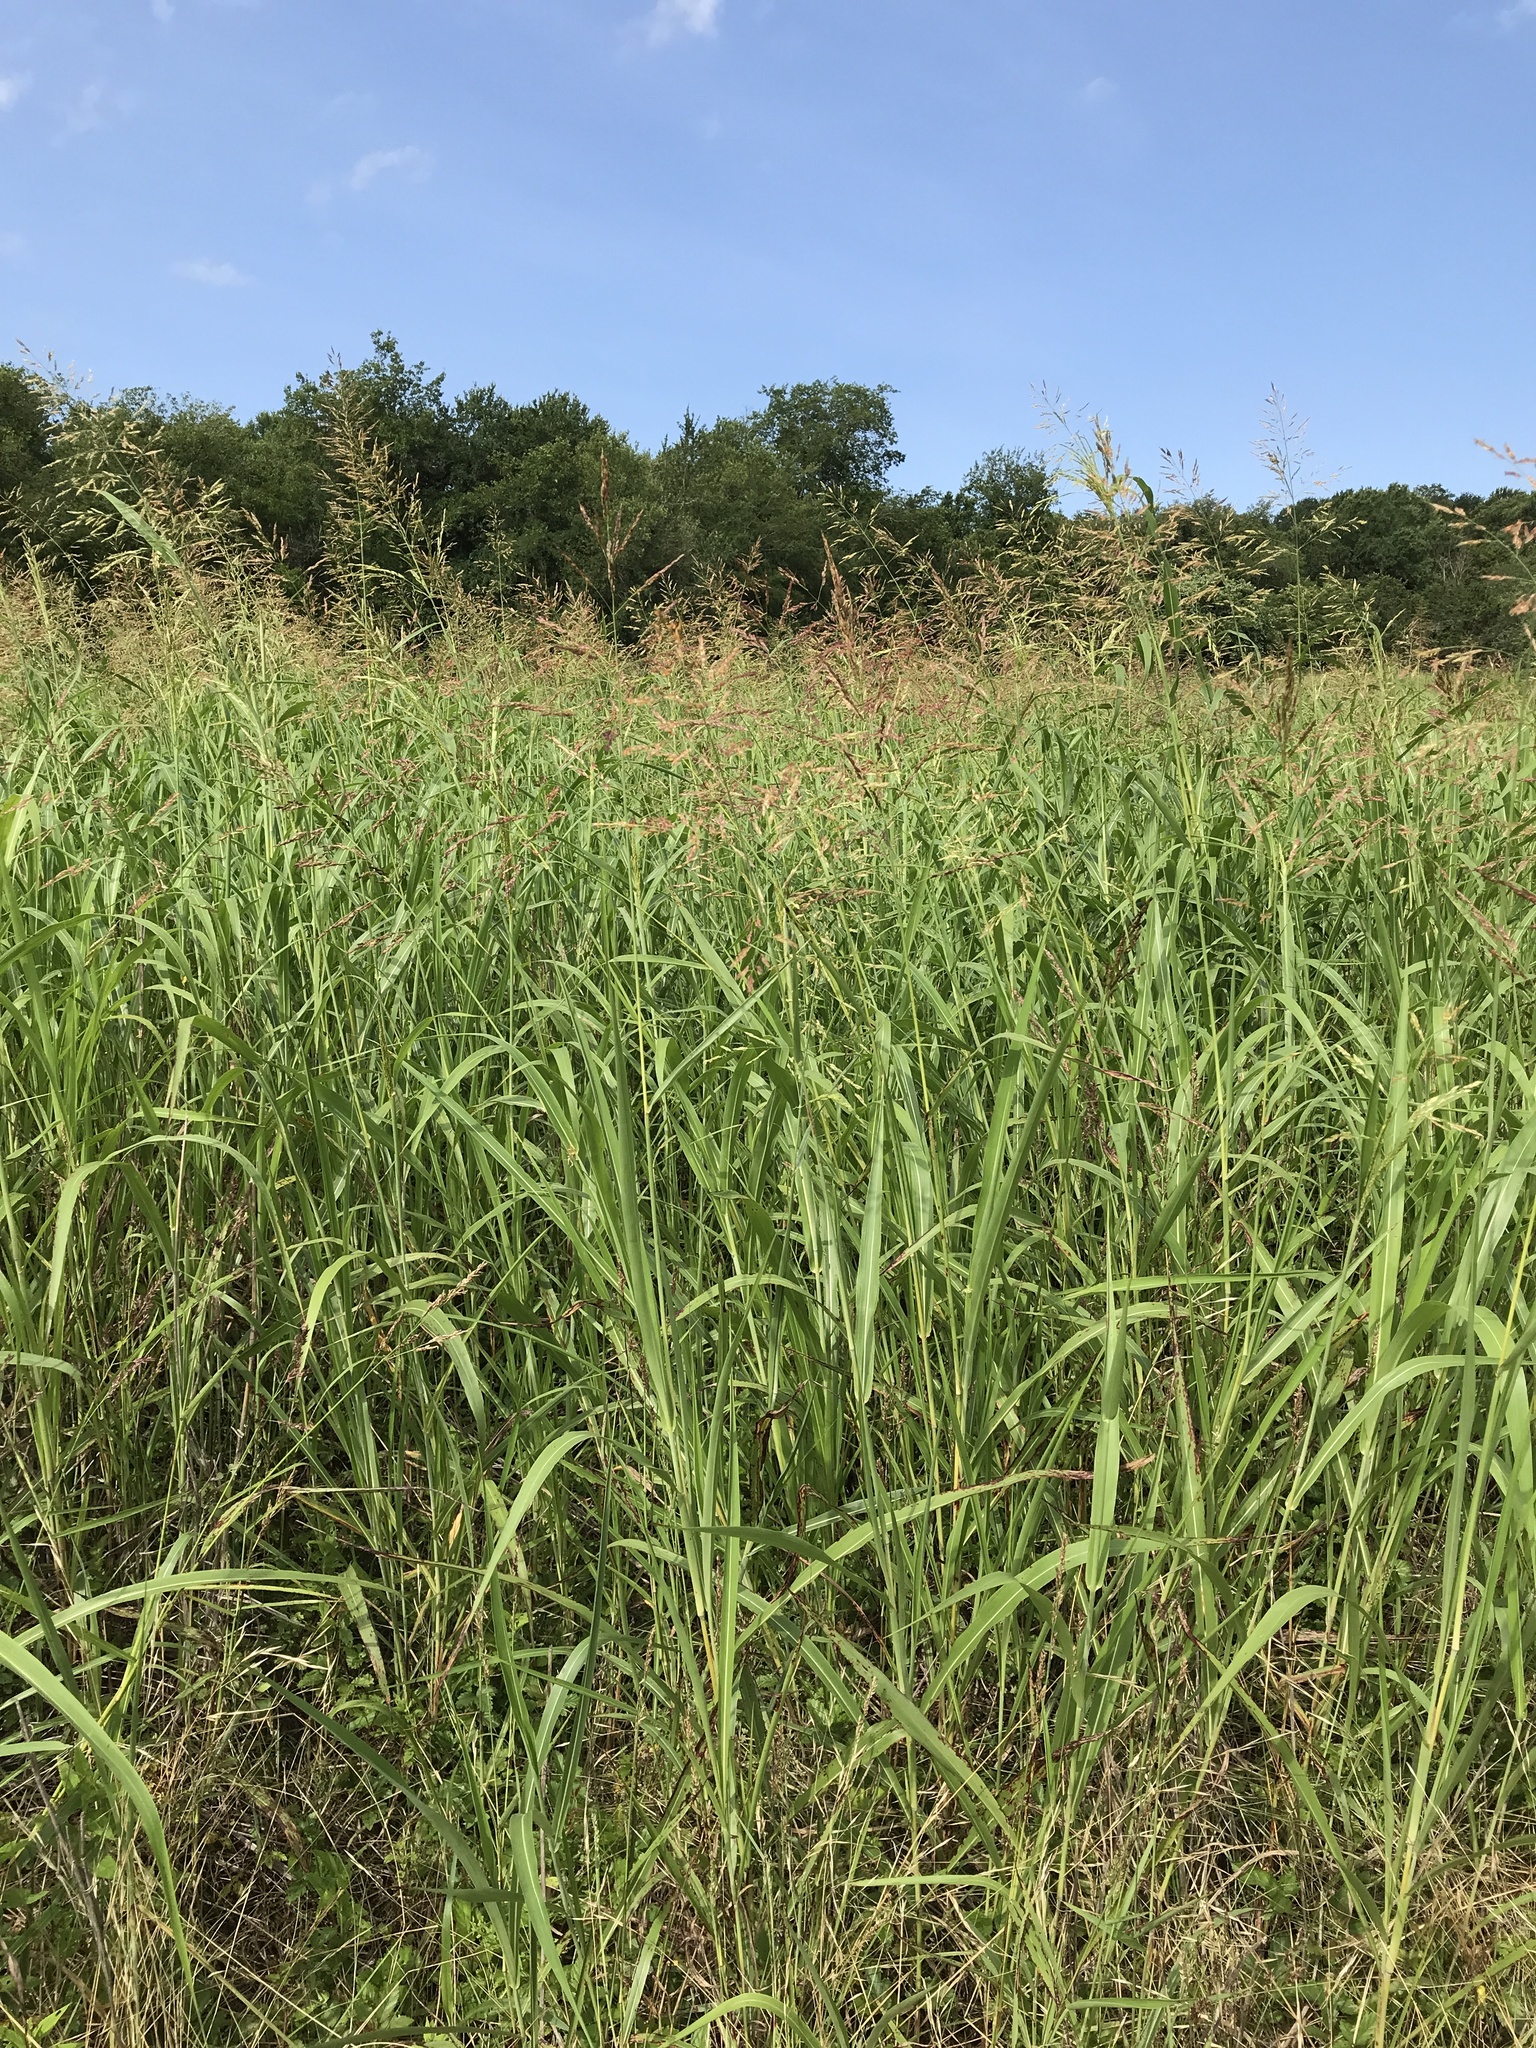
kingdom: Plantae
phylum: Tracheophyta
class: Liliopsida
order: Poales
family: Poaceae
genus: Sorghum
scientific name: Sorghum halepense
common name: Johnson-grass
